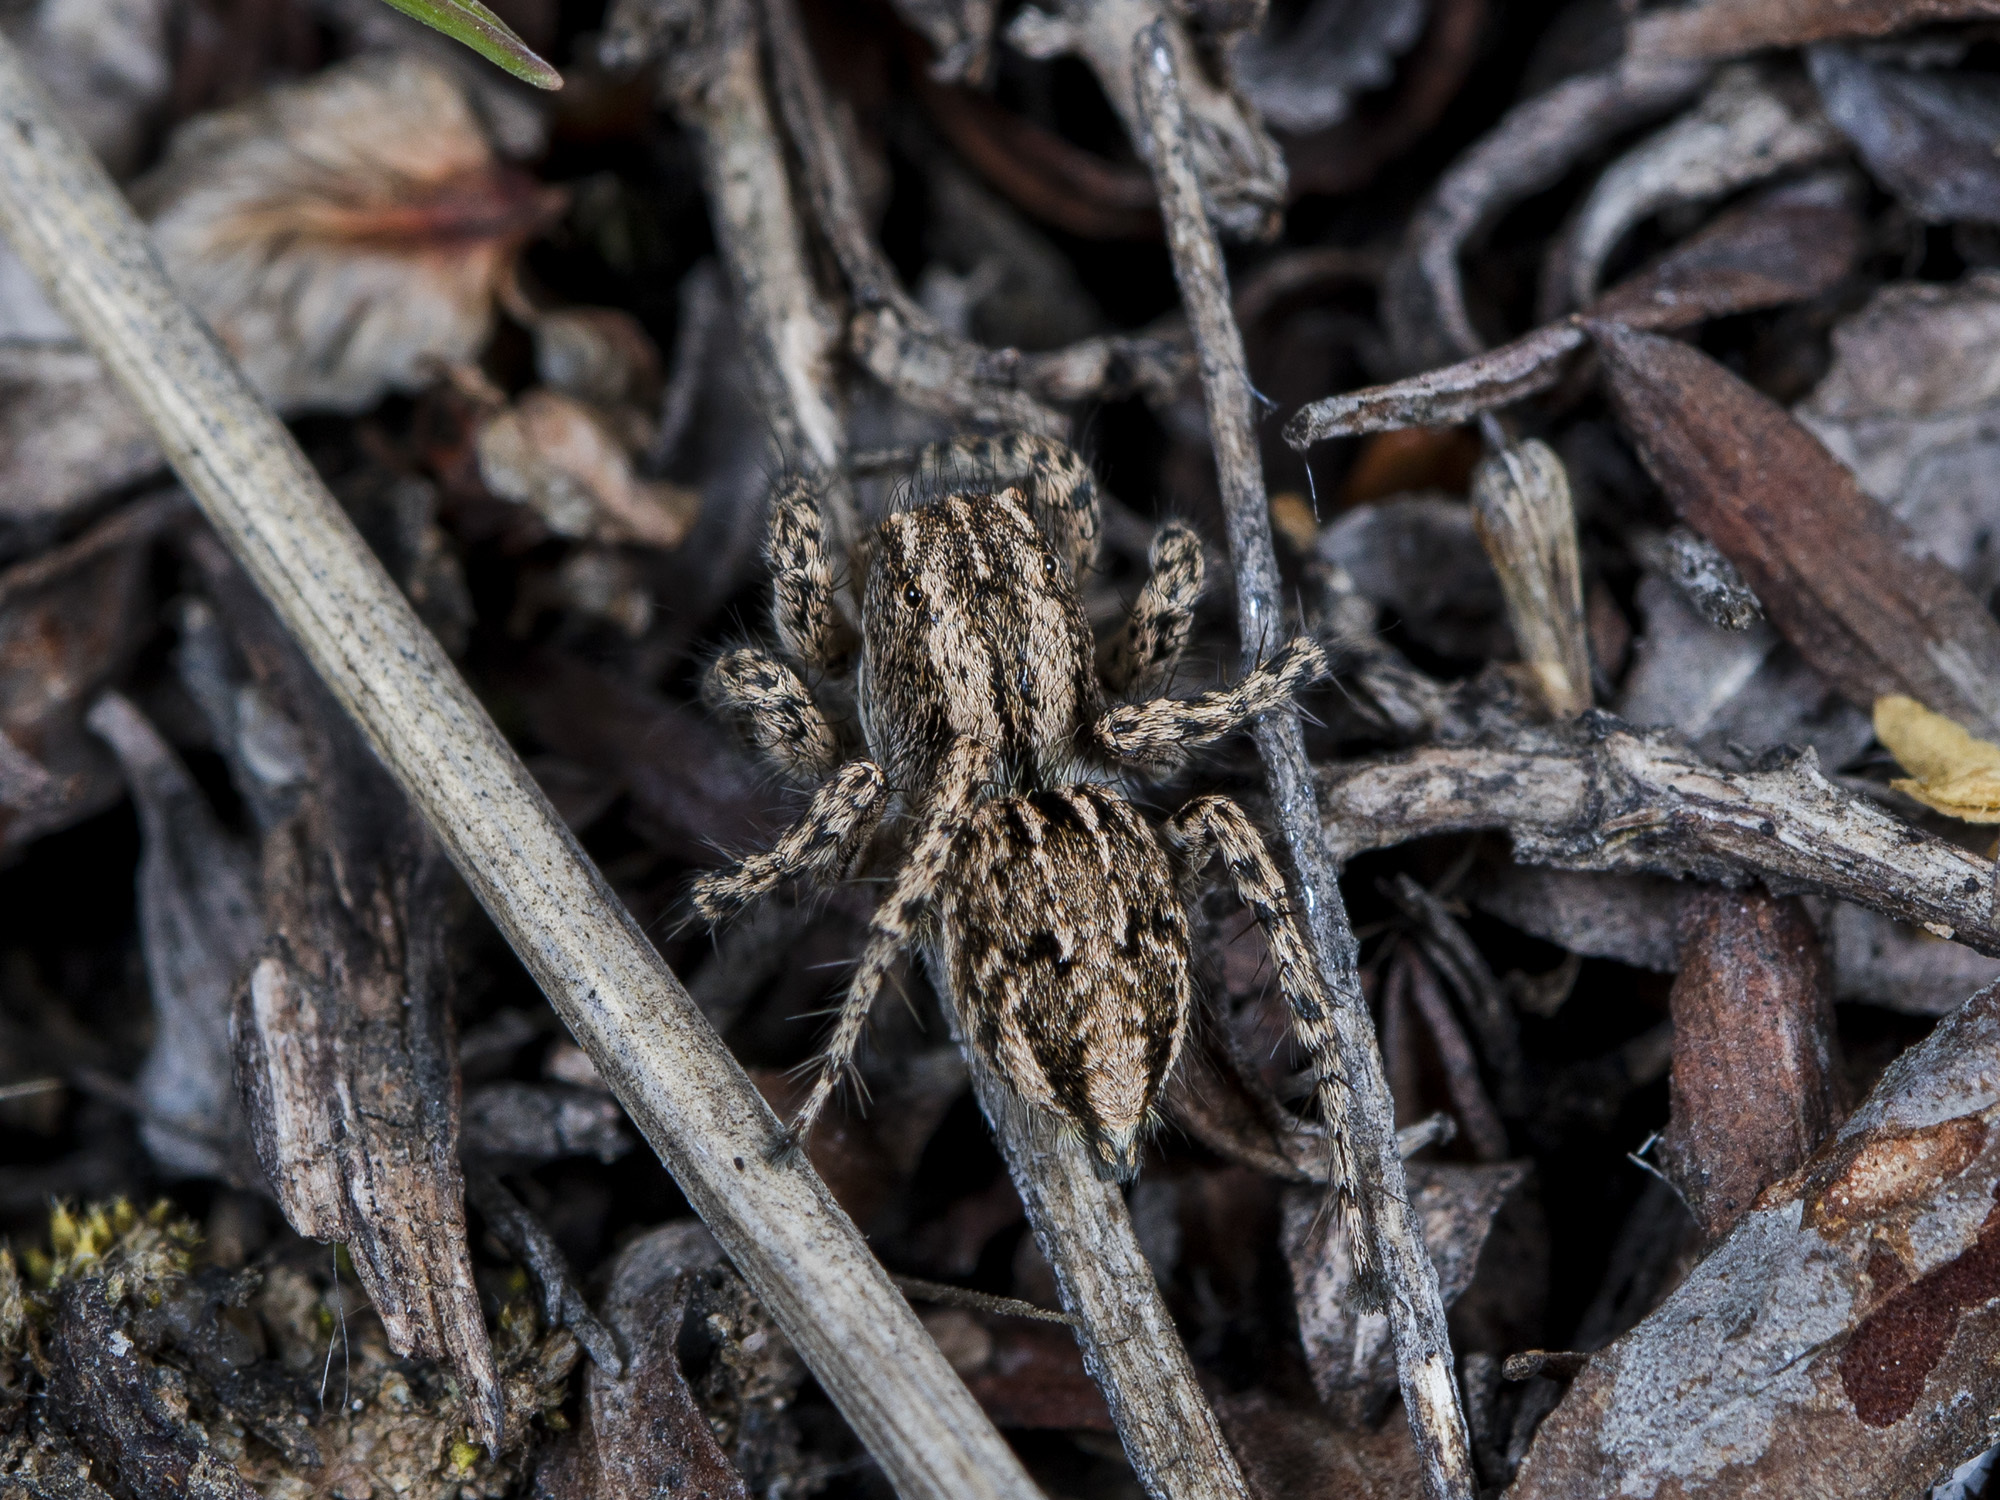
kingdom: Animalia
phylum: Arthropoda
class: Arachnida
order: Araneae
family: Salticidae
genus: Aelurillus
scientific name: Aelurillus m-nigrum
